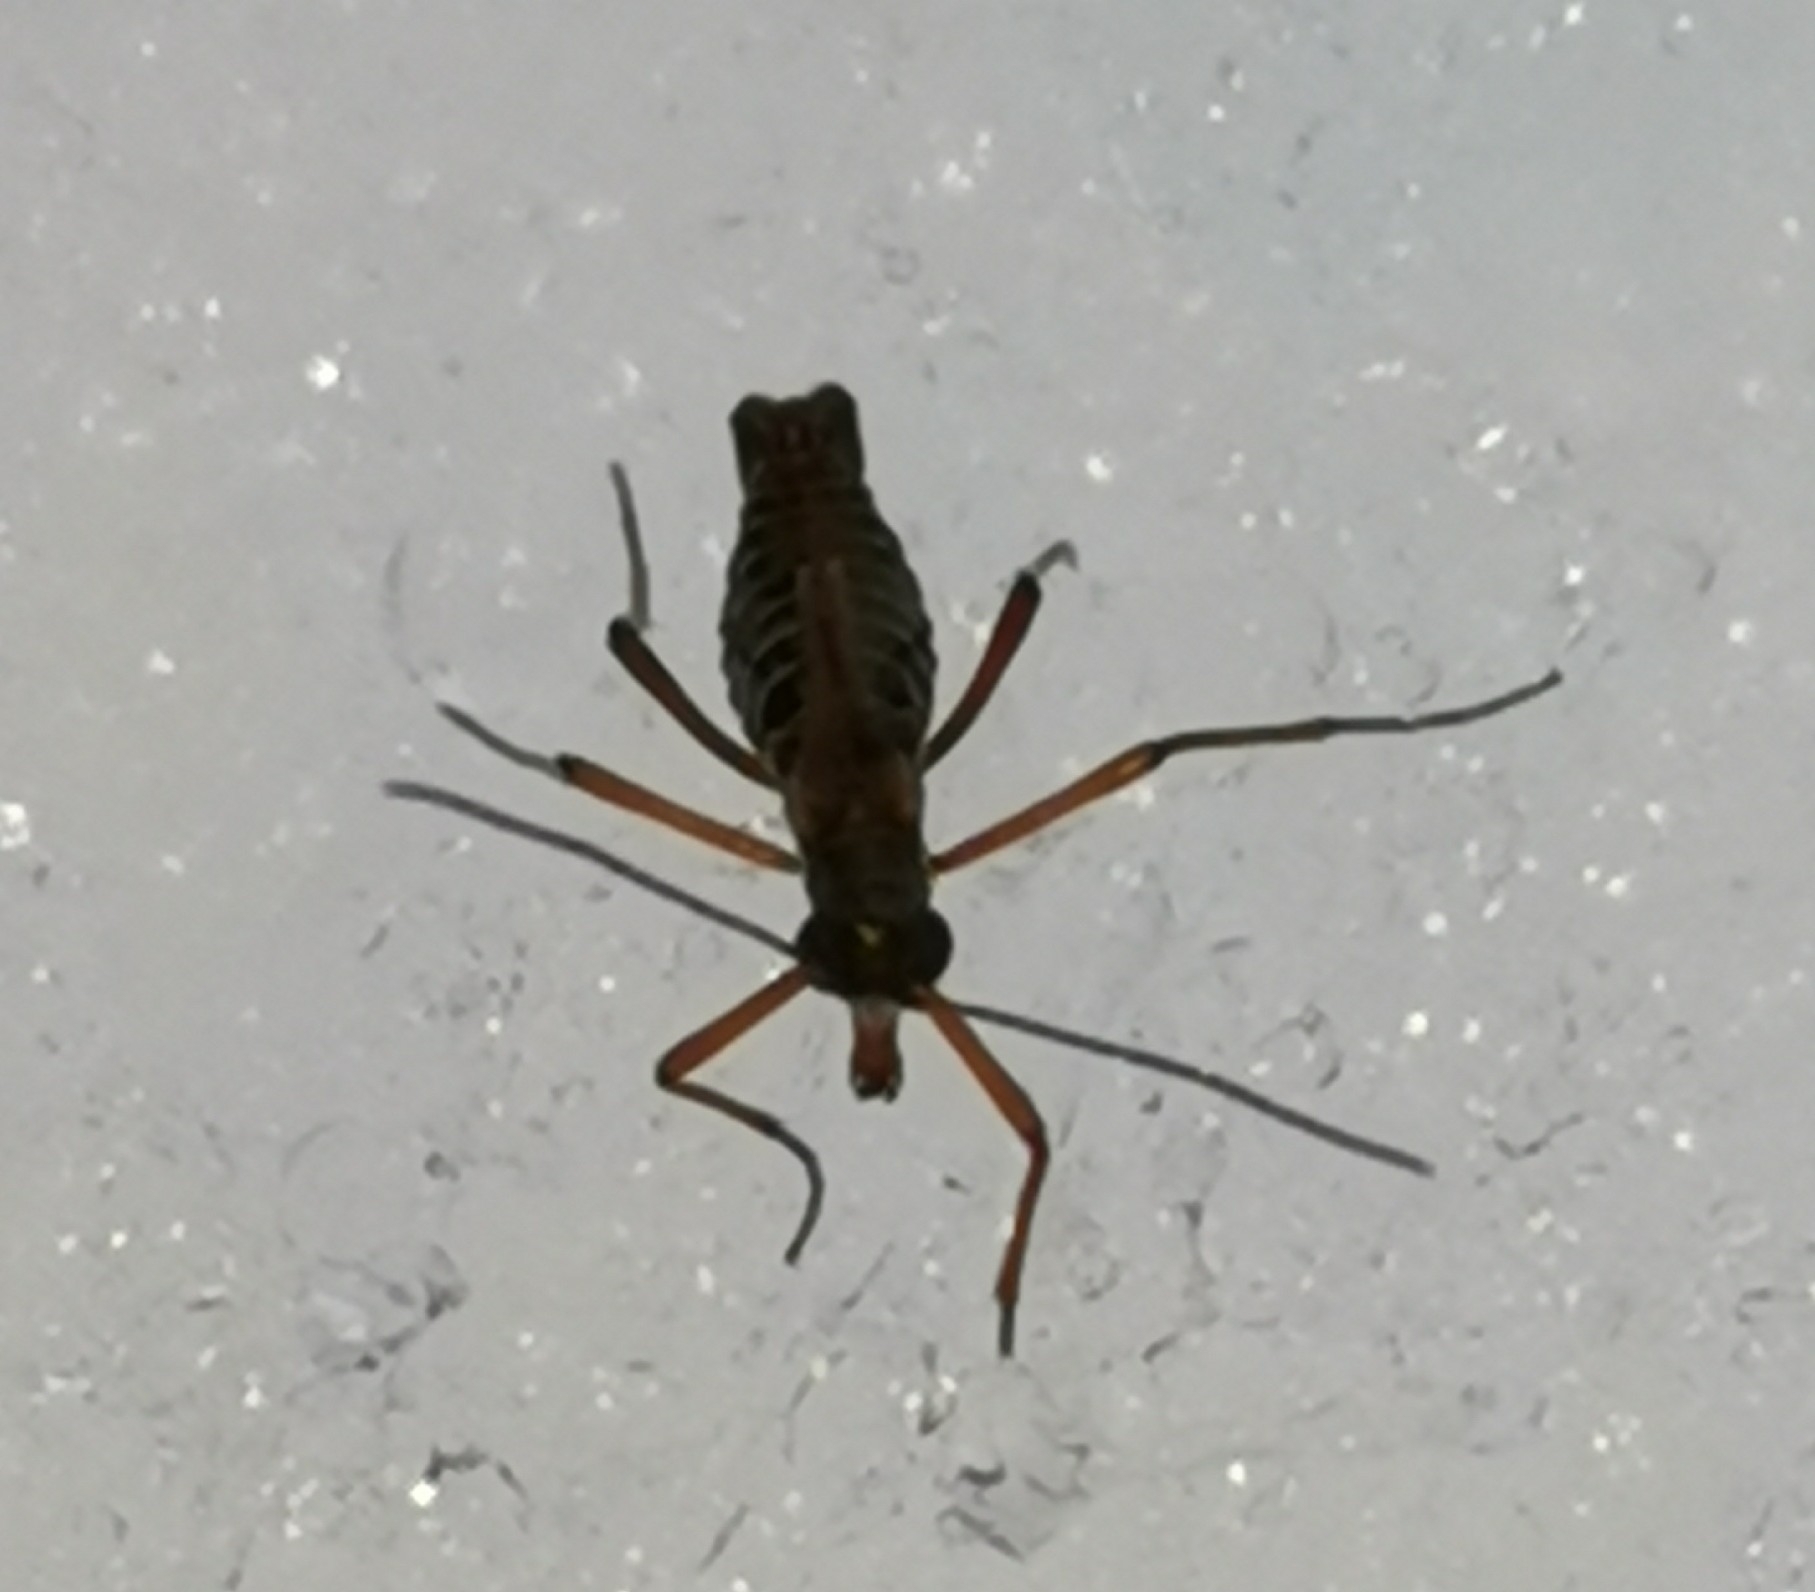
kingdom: Animalia
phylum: Arthropoda
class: Insecta
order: Mecoptera
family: Boreidae
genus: Boreus
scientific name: Boreus westwoodi
